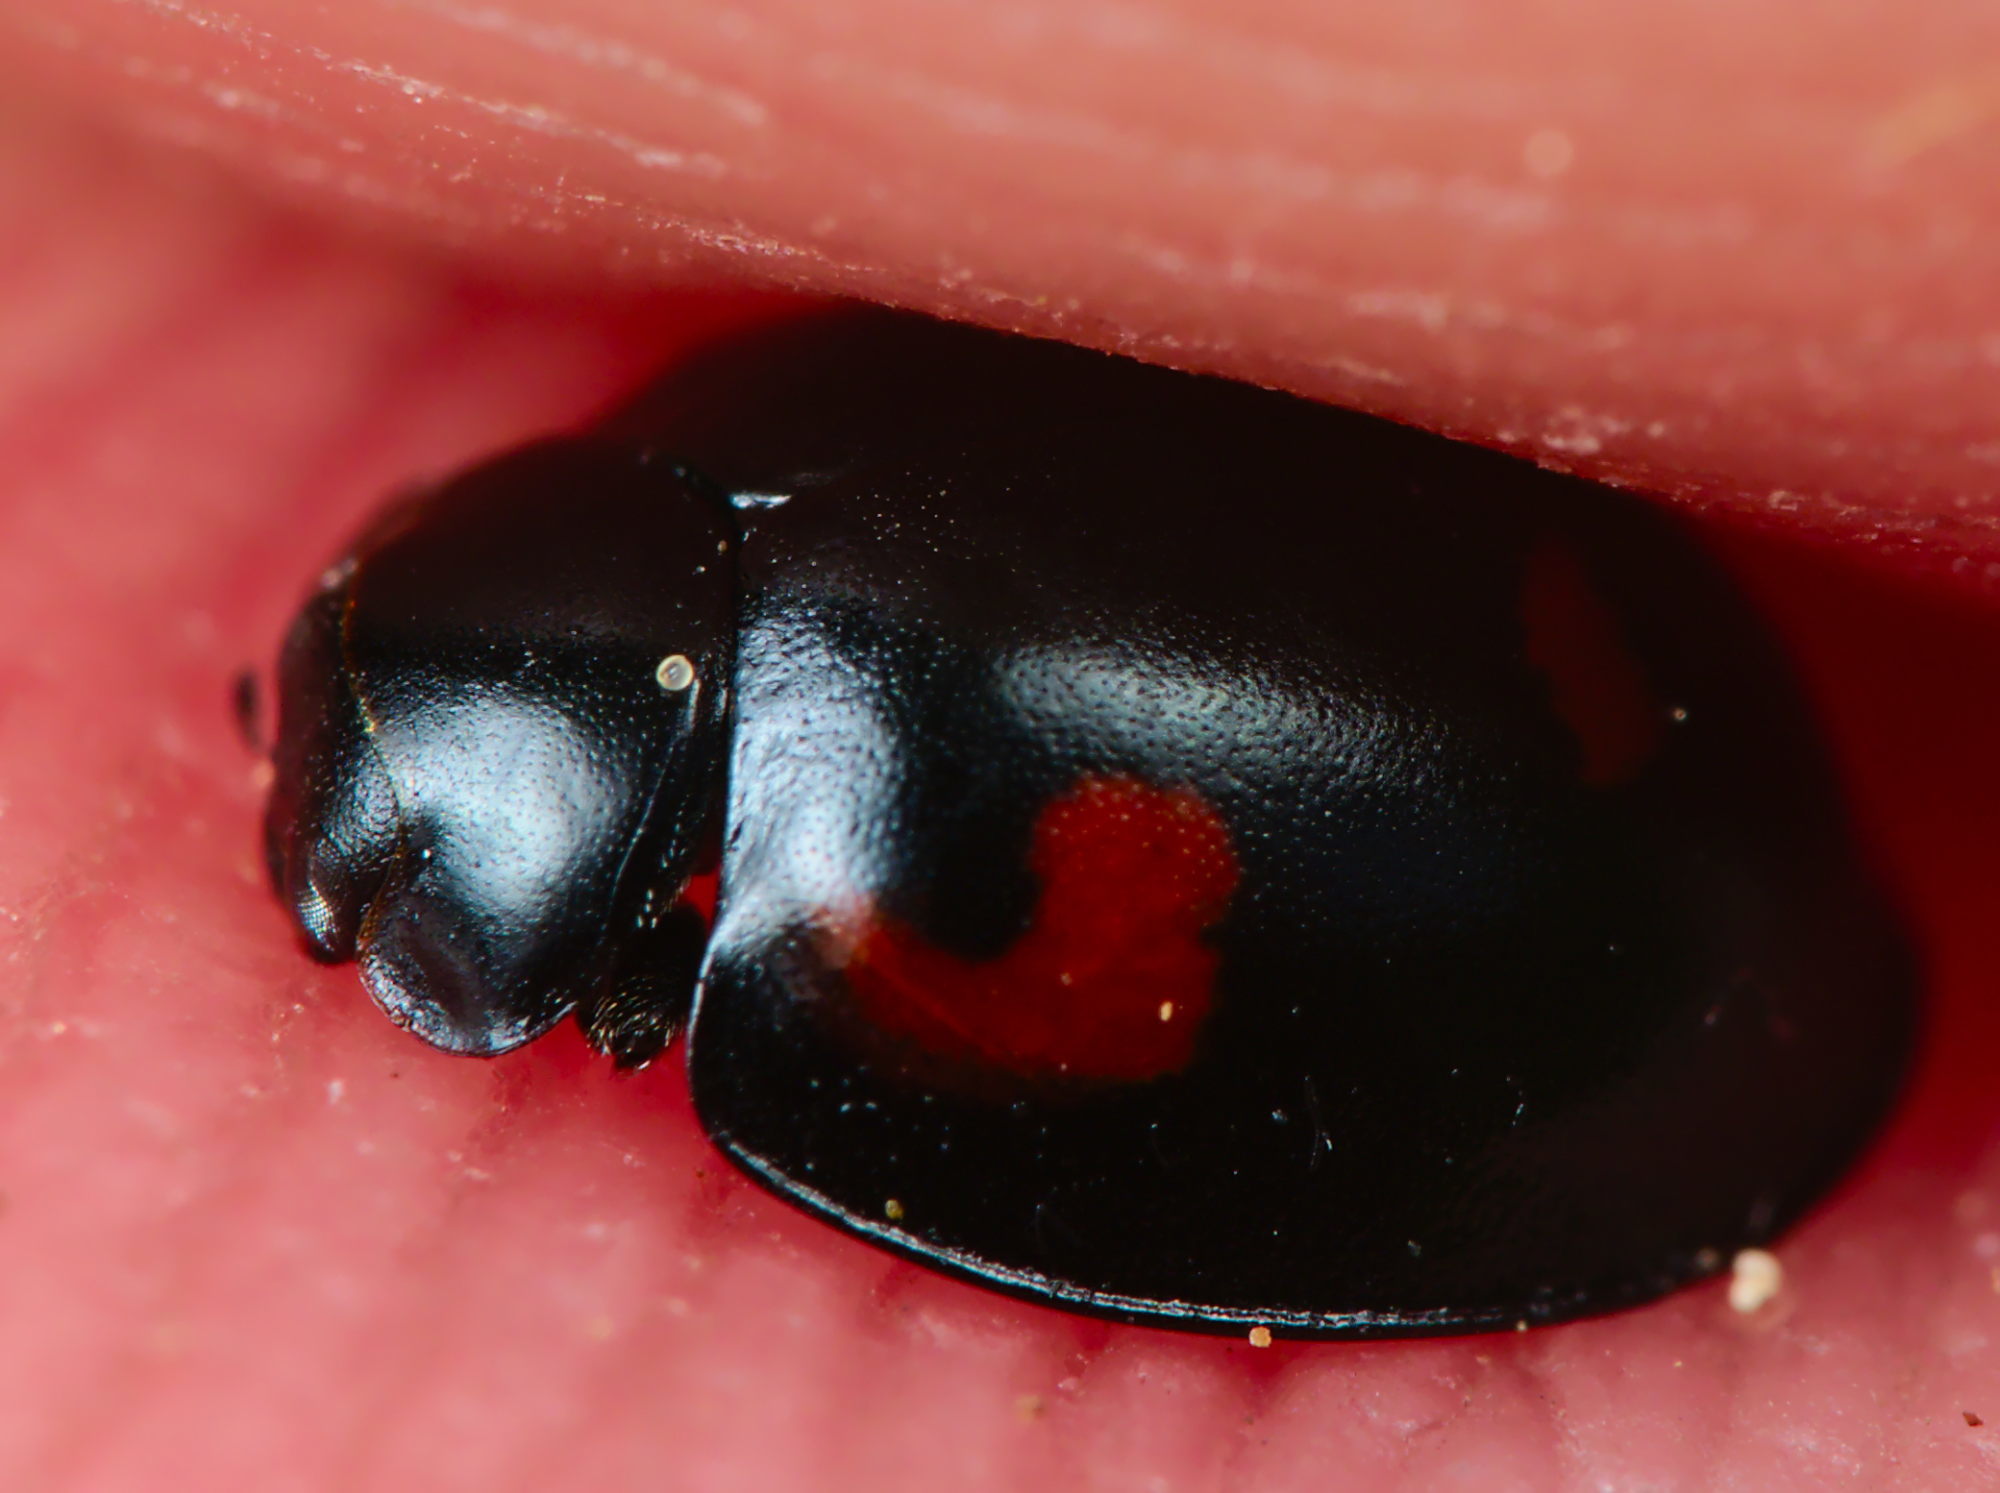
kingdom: Animalia
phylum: Arthropoda
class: Insecta
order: Coleoptera
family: Coccinellidae
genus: Brumus
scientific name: Brumus quadripustulatus
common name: Ladybird beetle
